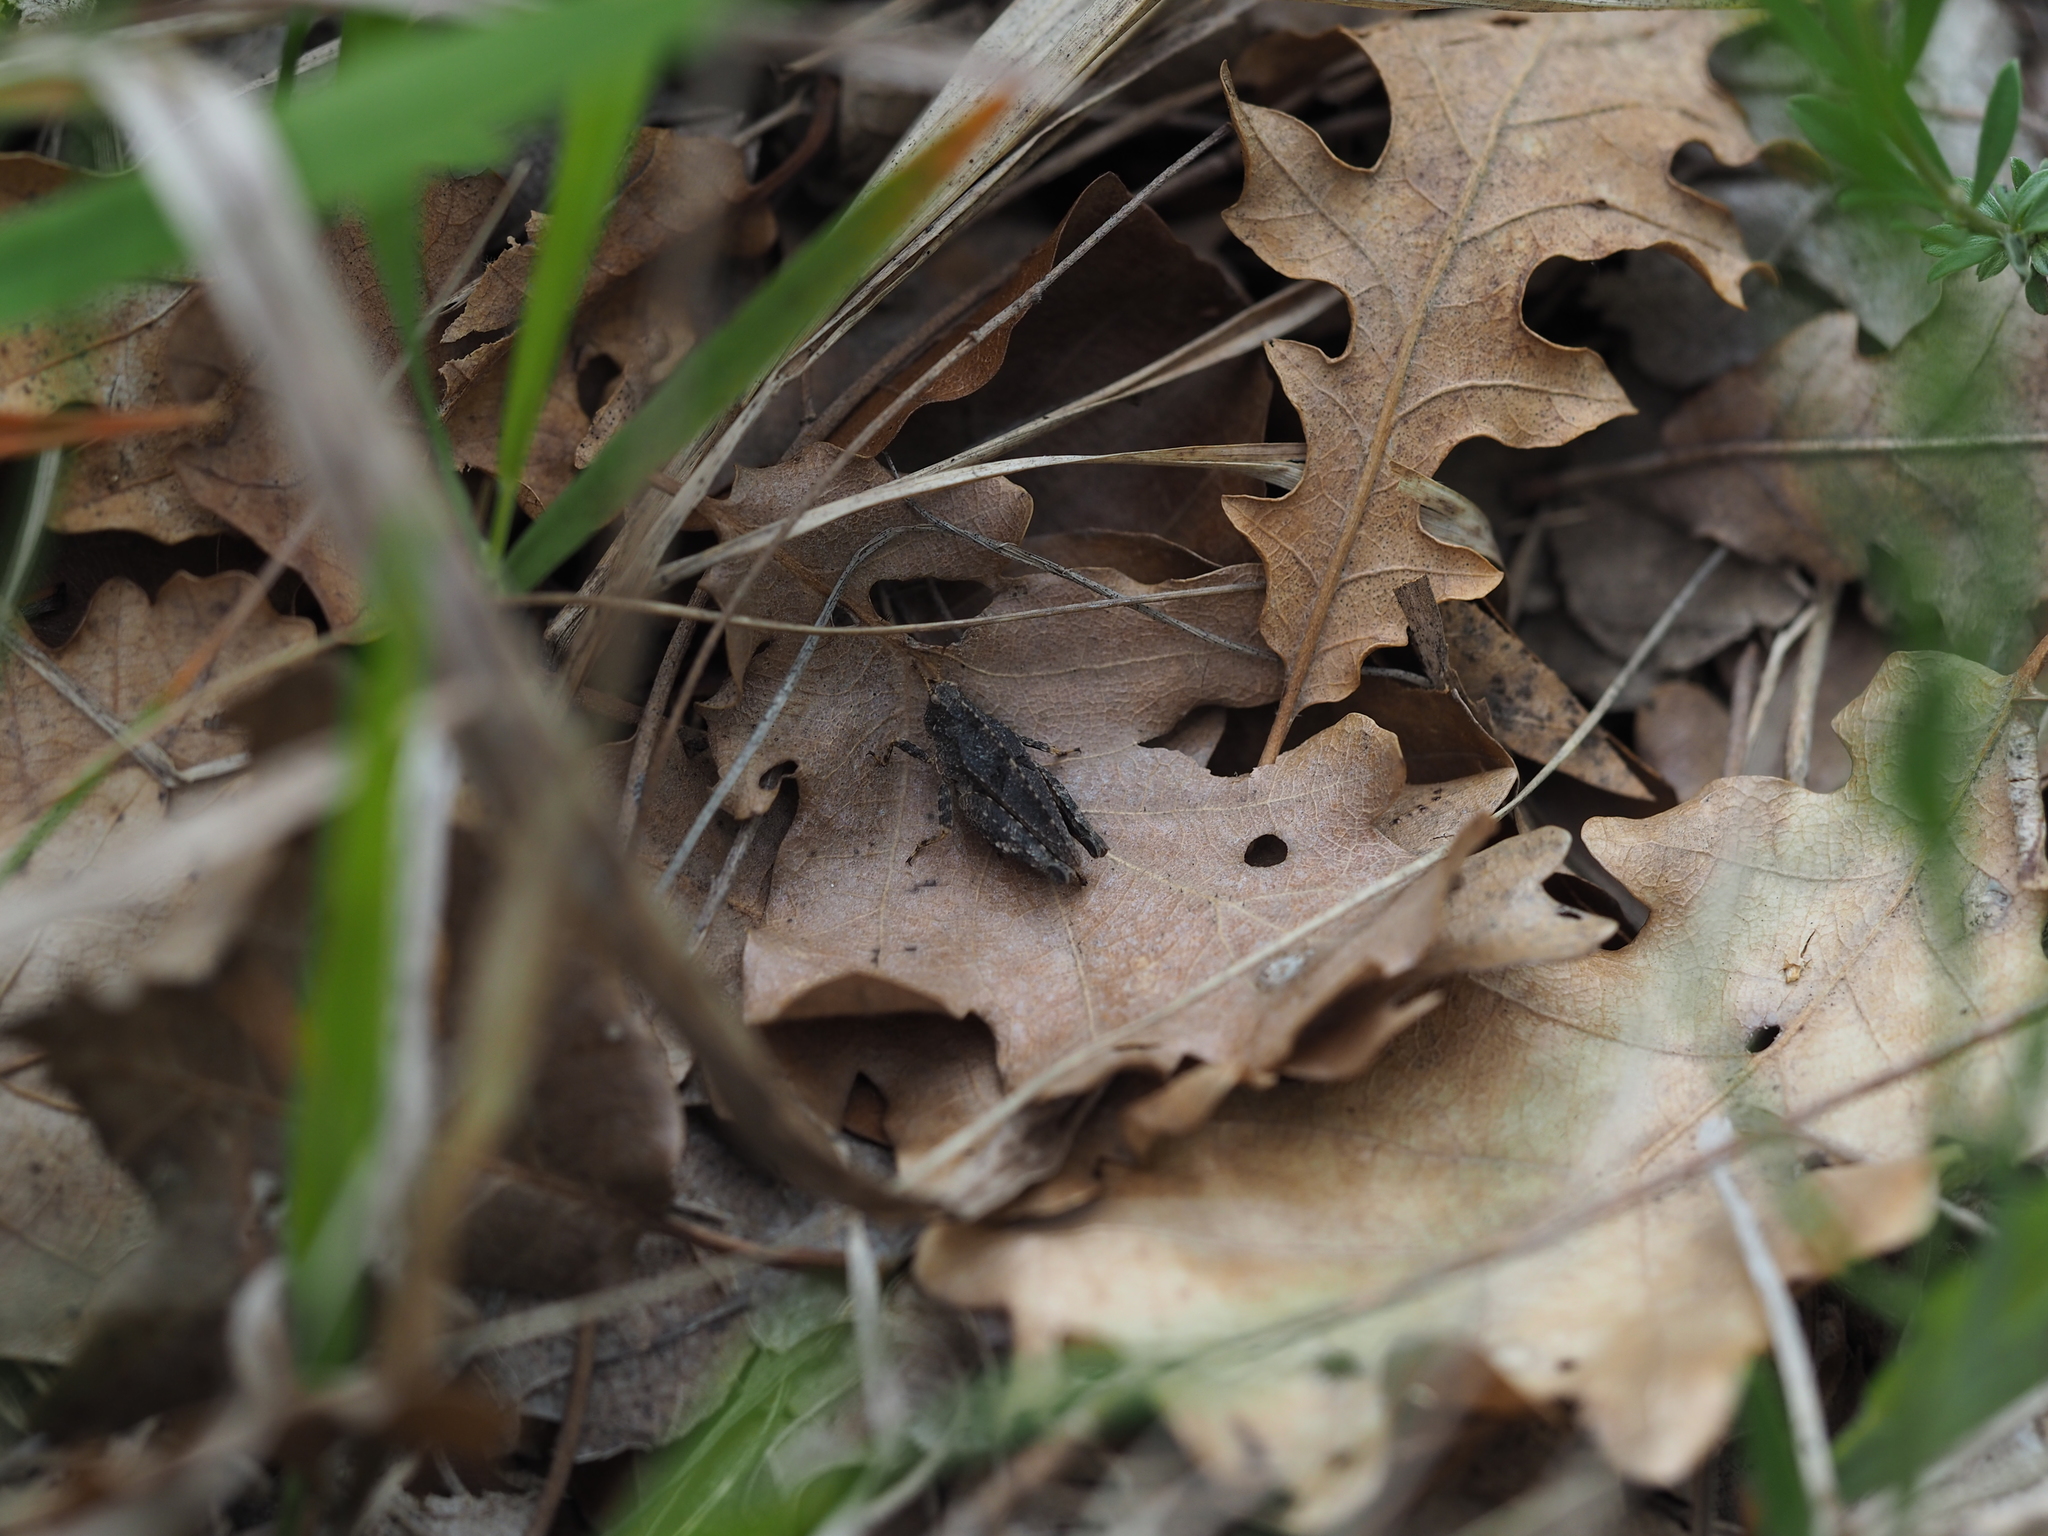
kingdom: Animalia
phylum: Arthropoda
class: Insecta
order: Orthoptera
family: Tetrigidae
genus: Tetrix
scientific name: Tetrix bipunctata
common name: Two-spotted groundhopper
